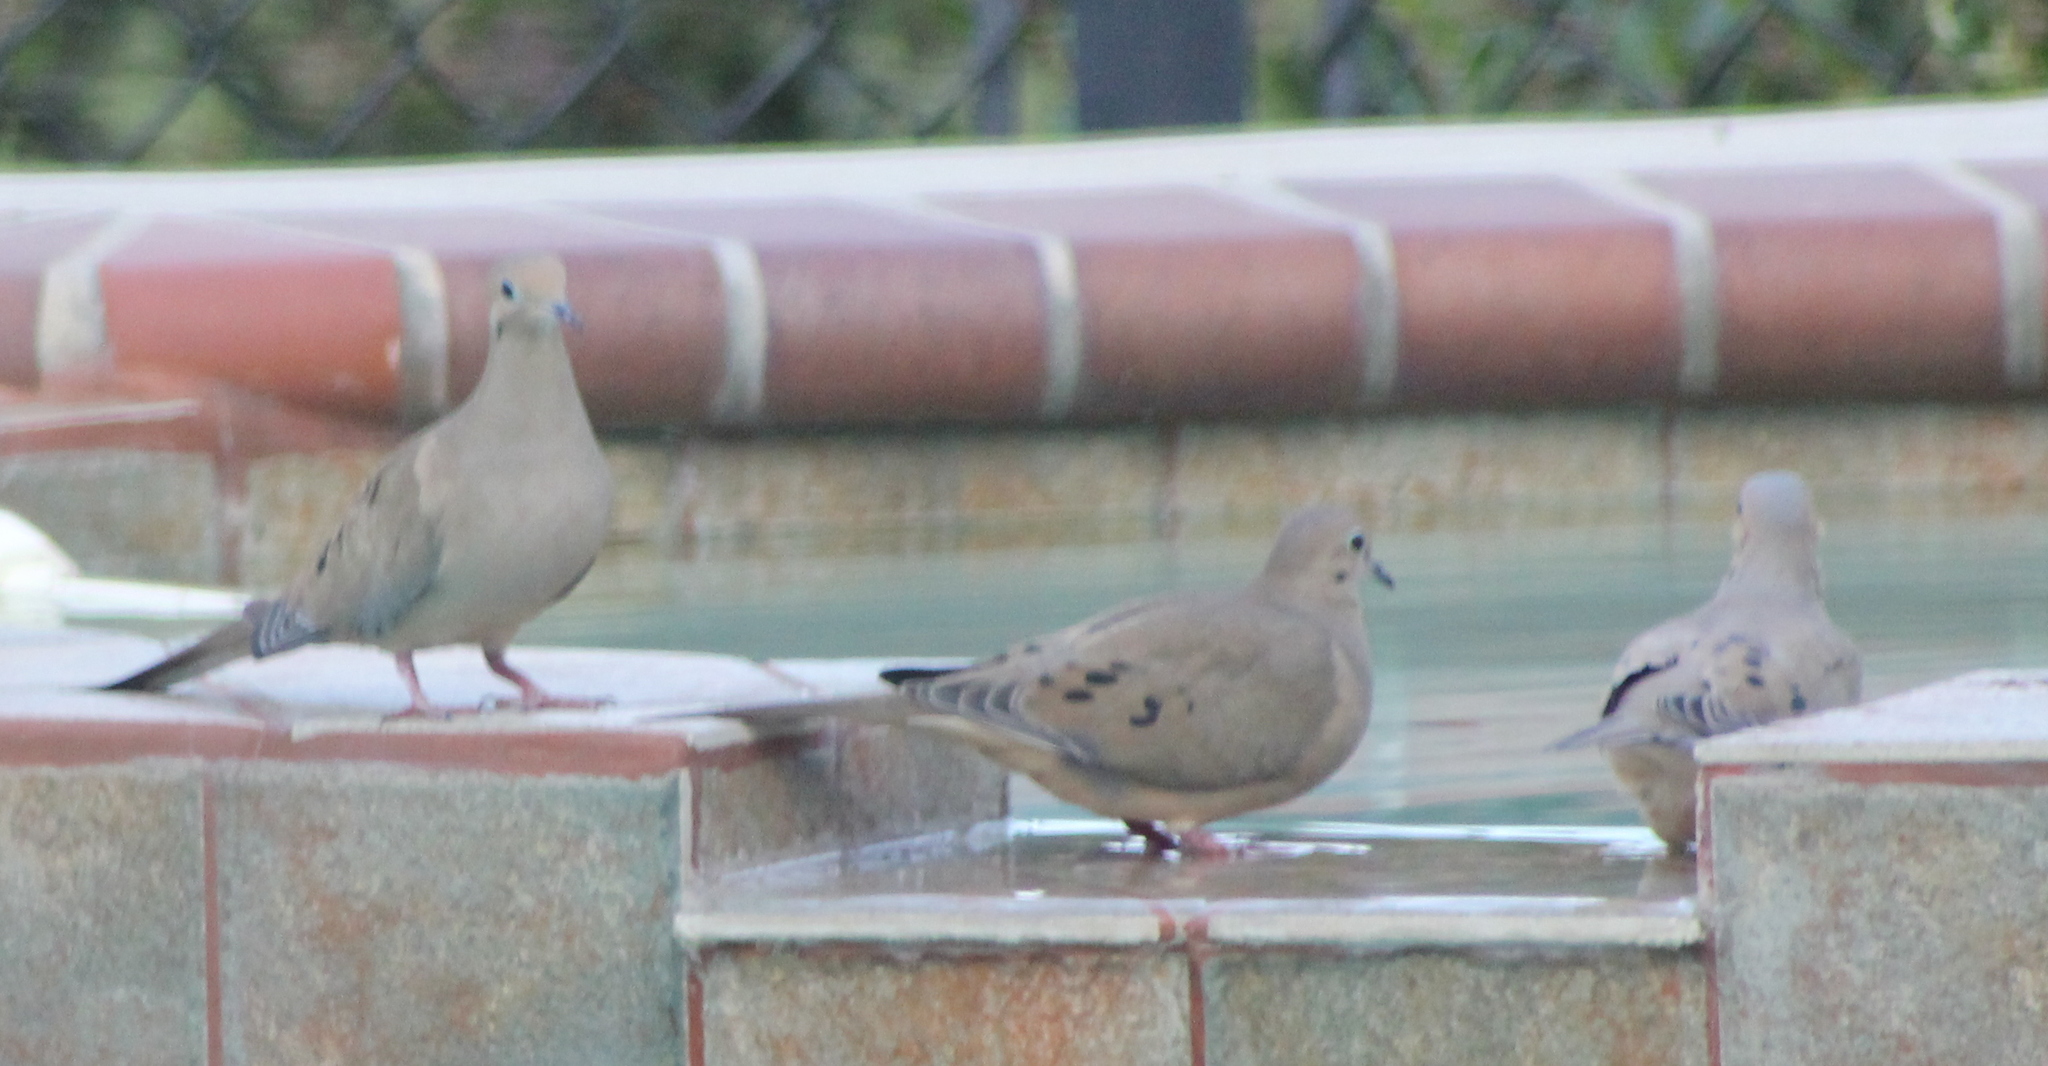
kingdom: Animalia
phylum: Chordata
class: Aves
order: Columbiformes
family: Columbidae
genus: Zenaida
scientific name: Zenaida macroura
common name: Mourning dove
